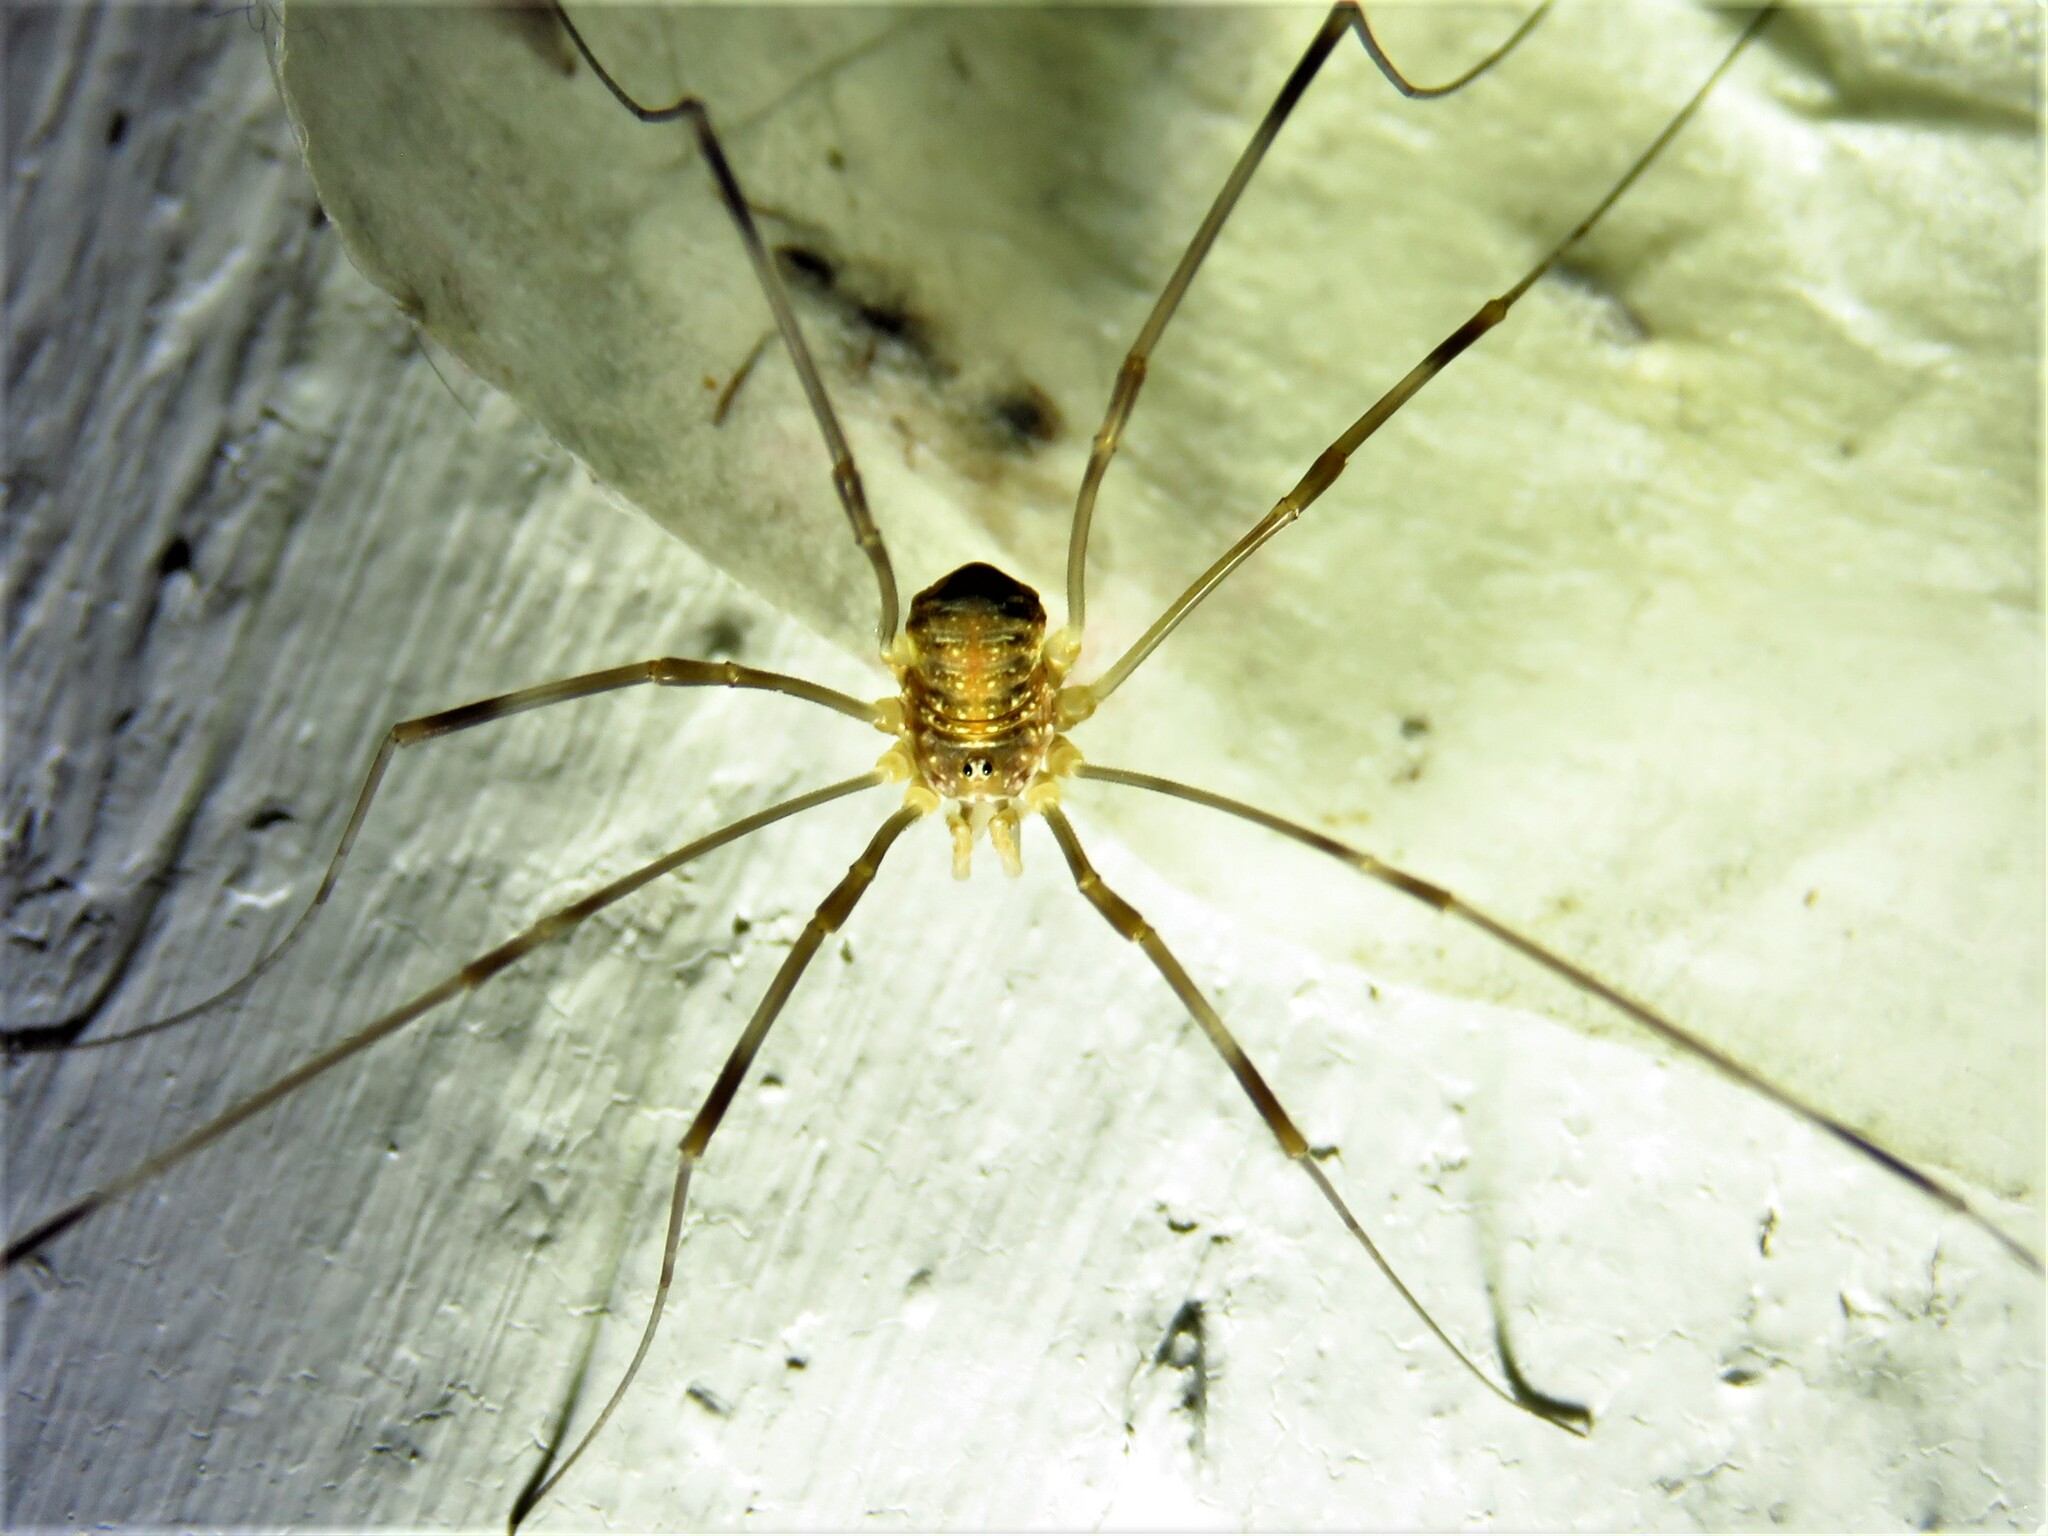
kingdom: Animalia
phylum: Arthropoda
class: Arachnida
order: Opiliones
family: Phalangiidae
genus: Opilio
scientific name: Opilio canestrinii
